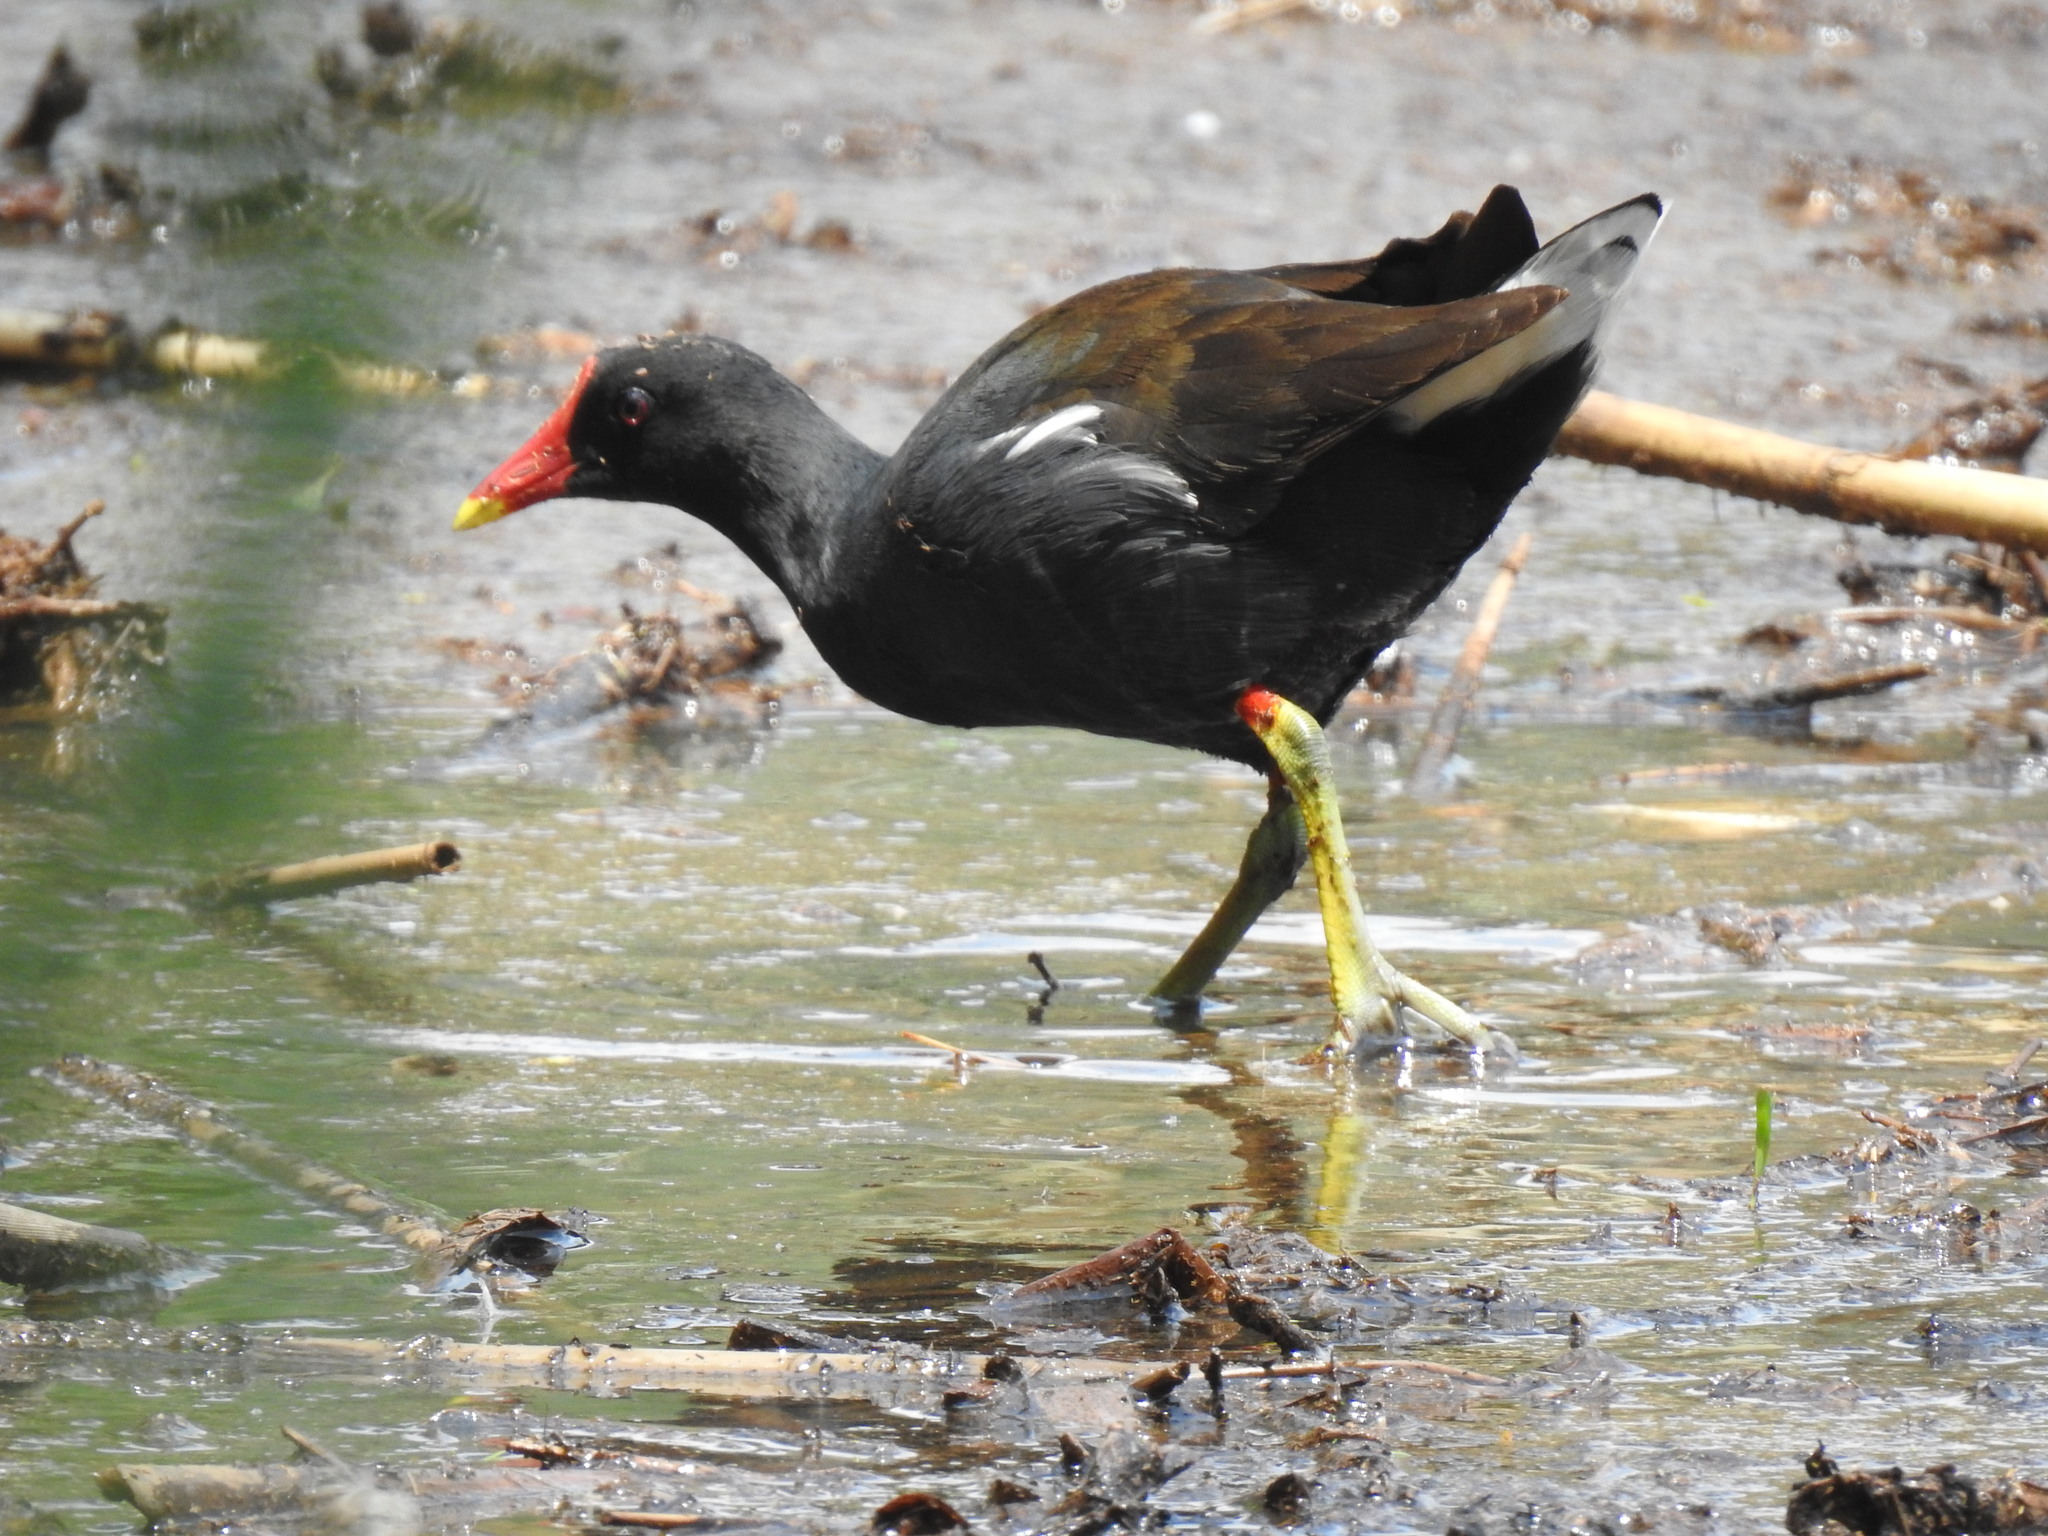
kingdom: Animalia
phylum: Chordata
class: Aves
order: Gruiformes
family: Rallidae
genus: Gallinula
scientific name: Gallinula chloropus
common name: Common moorhen
